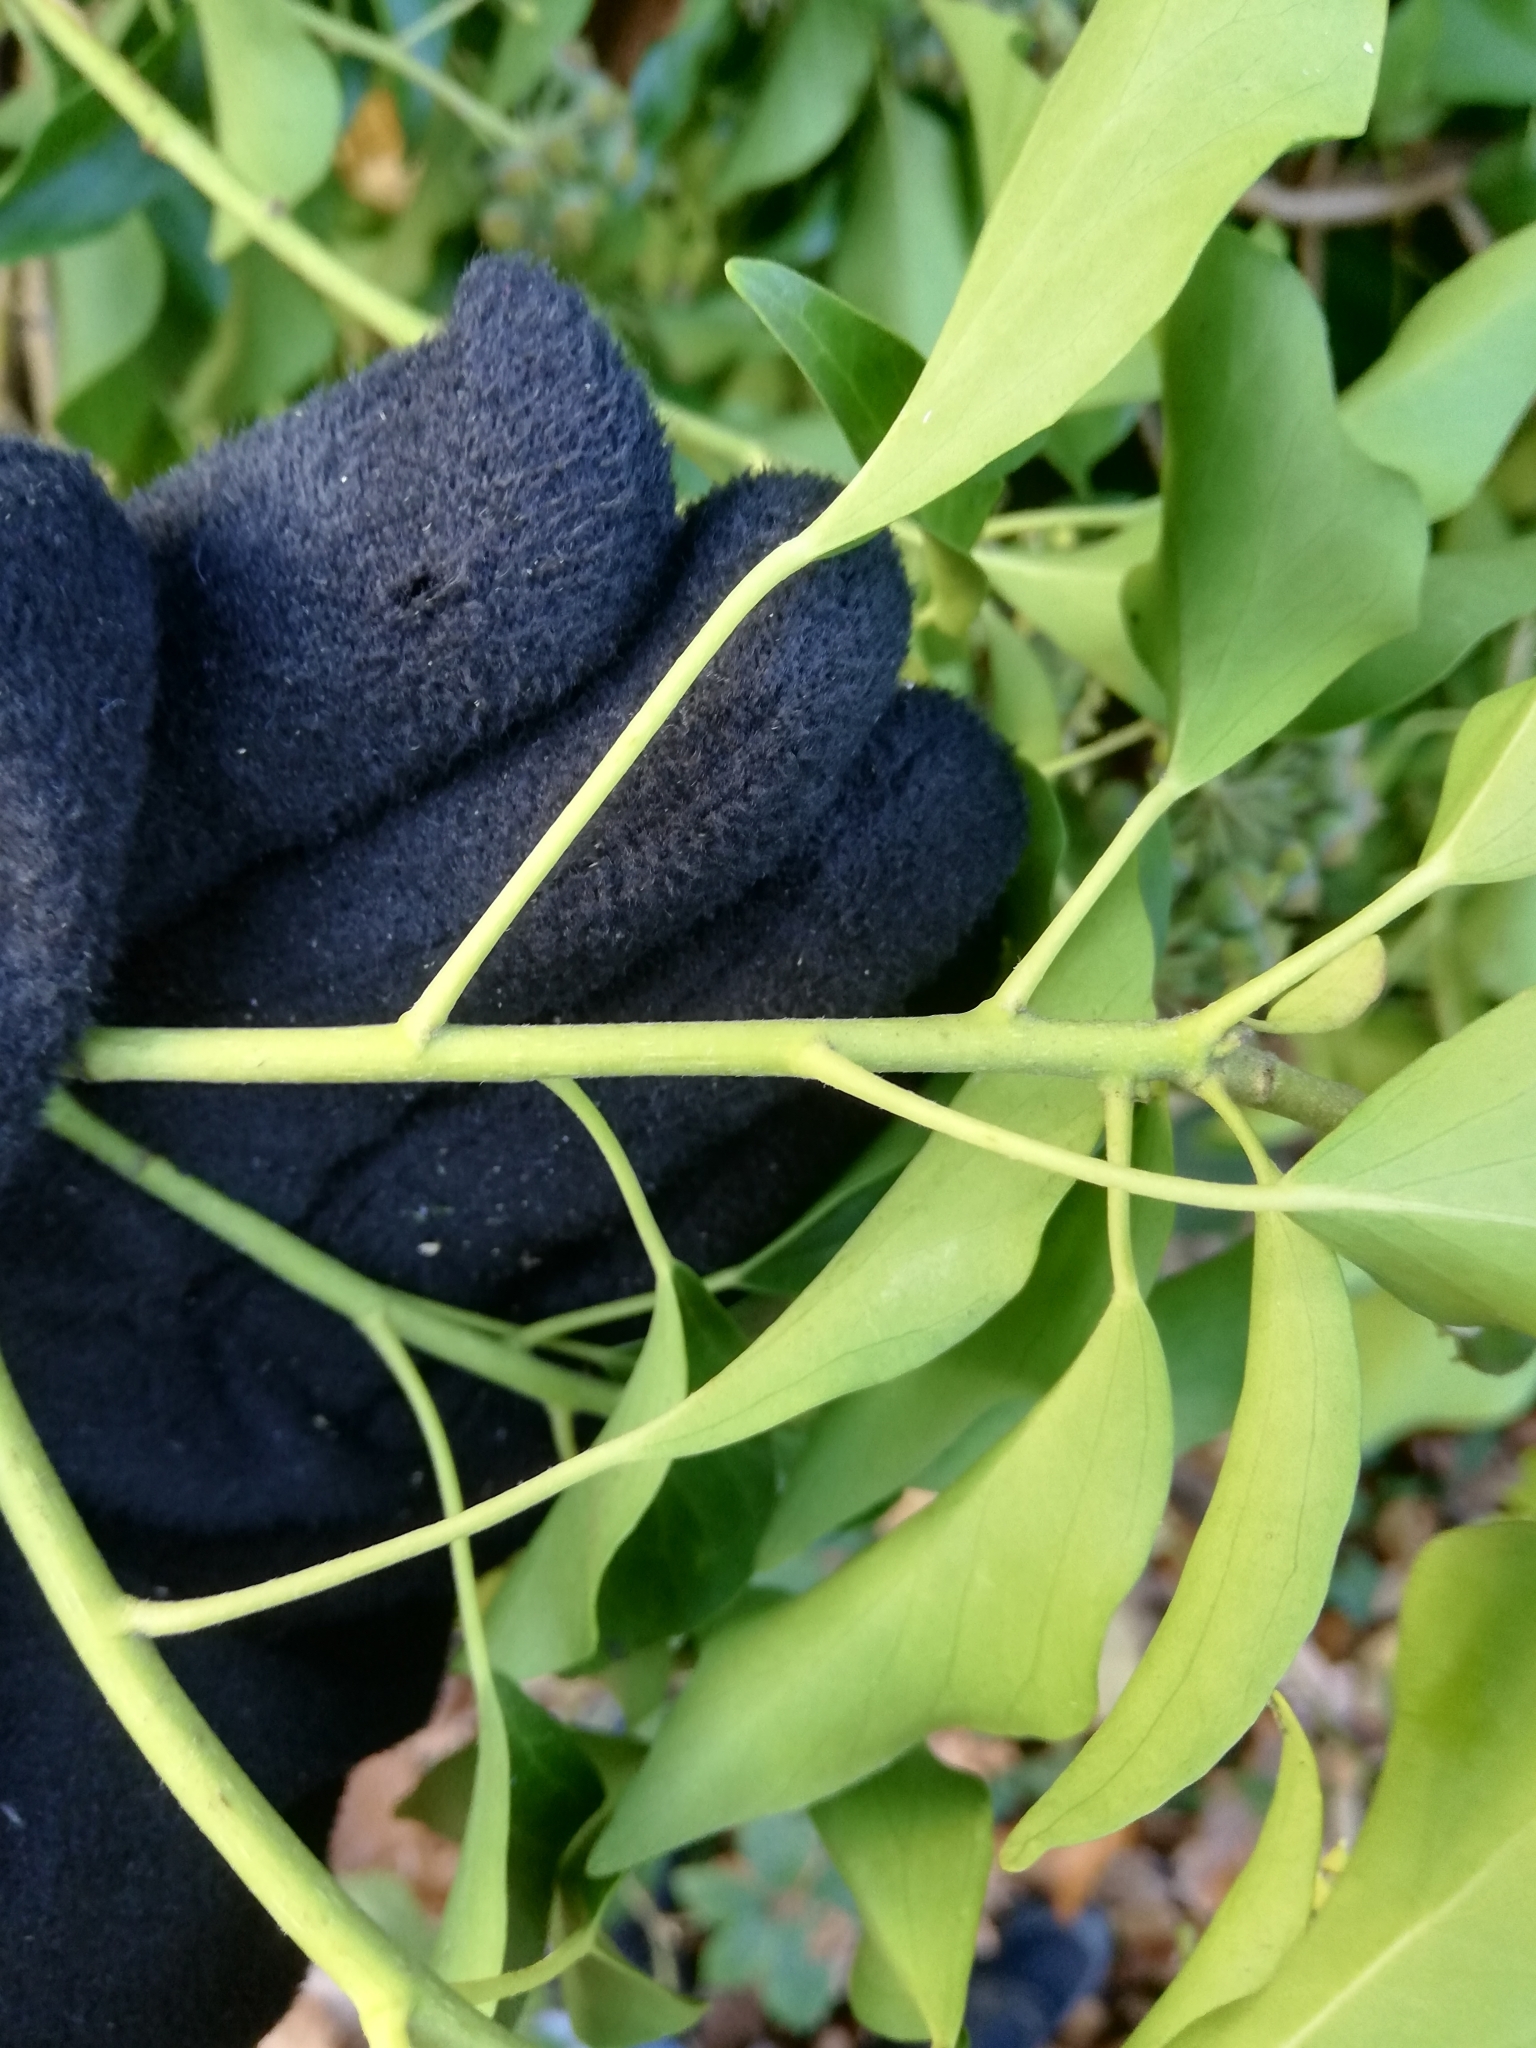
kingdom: Plantae
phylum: Tracheophyta
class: Magnoliopsida
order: Apiales
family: Araliaceae
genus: Hedera
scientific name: Hedera helix
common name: Ivy
